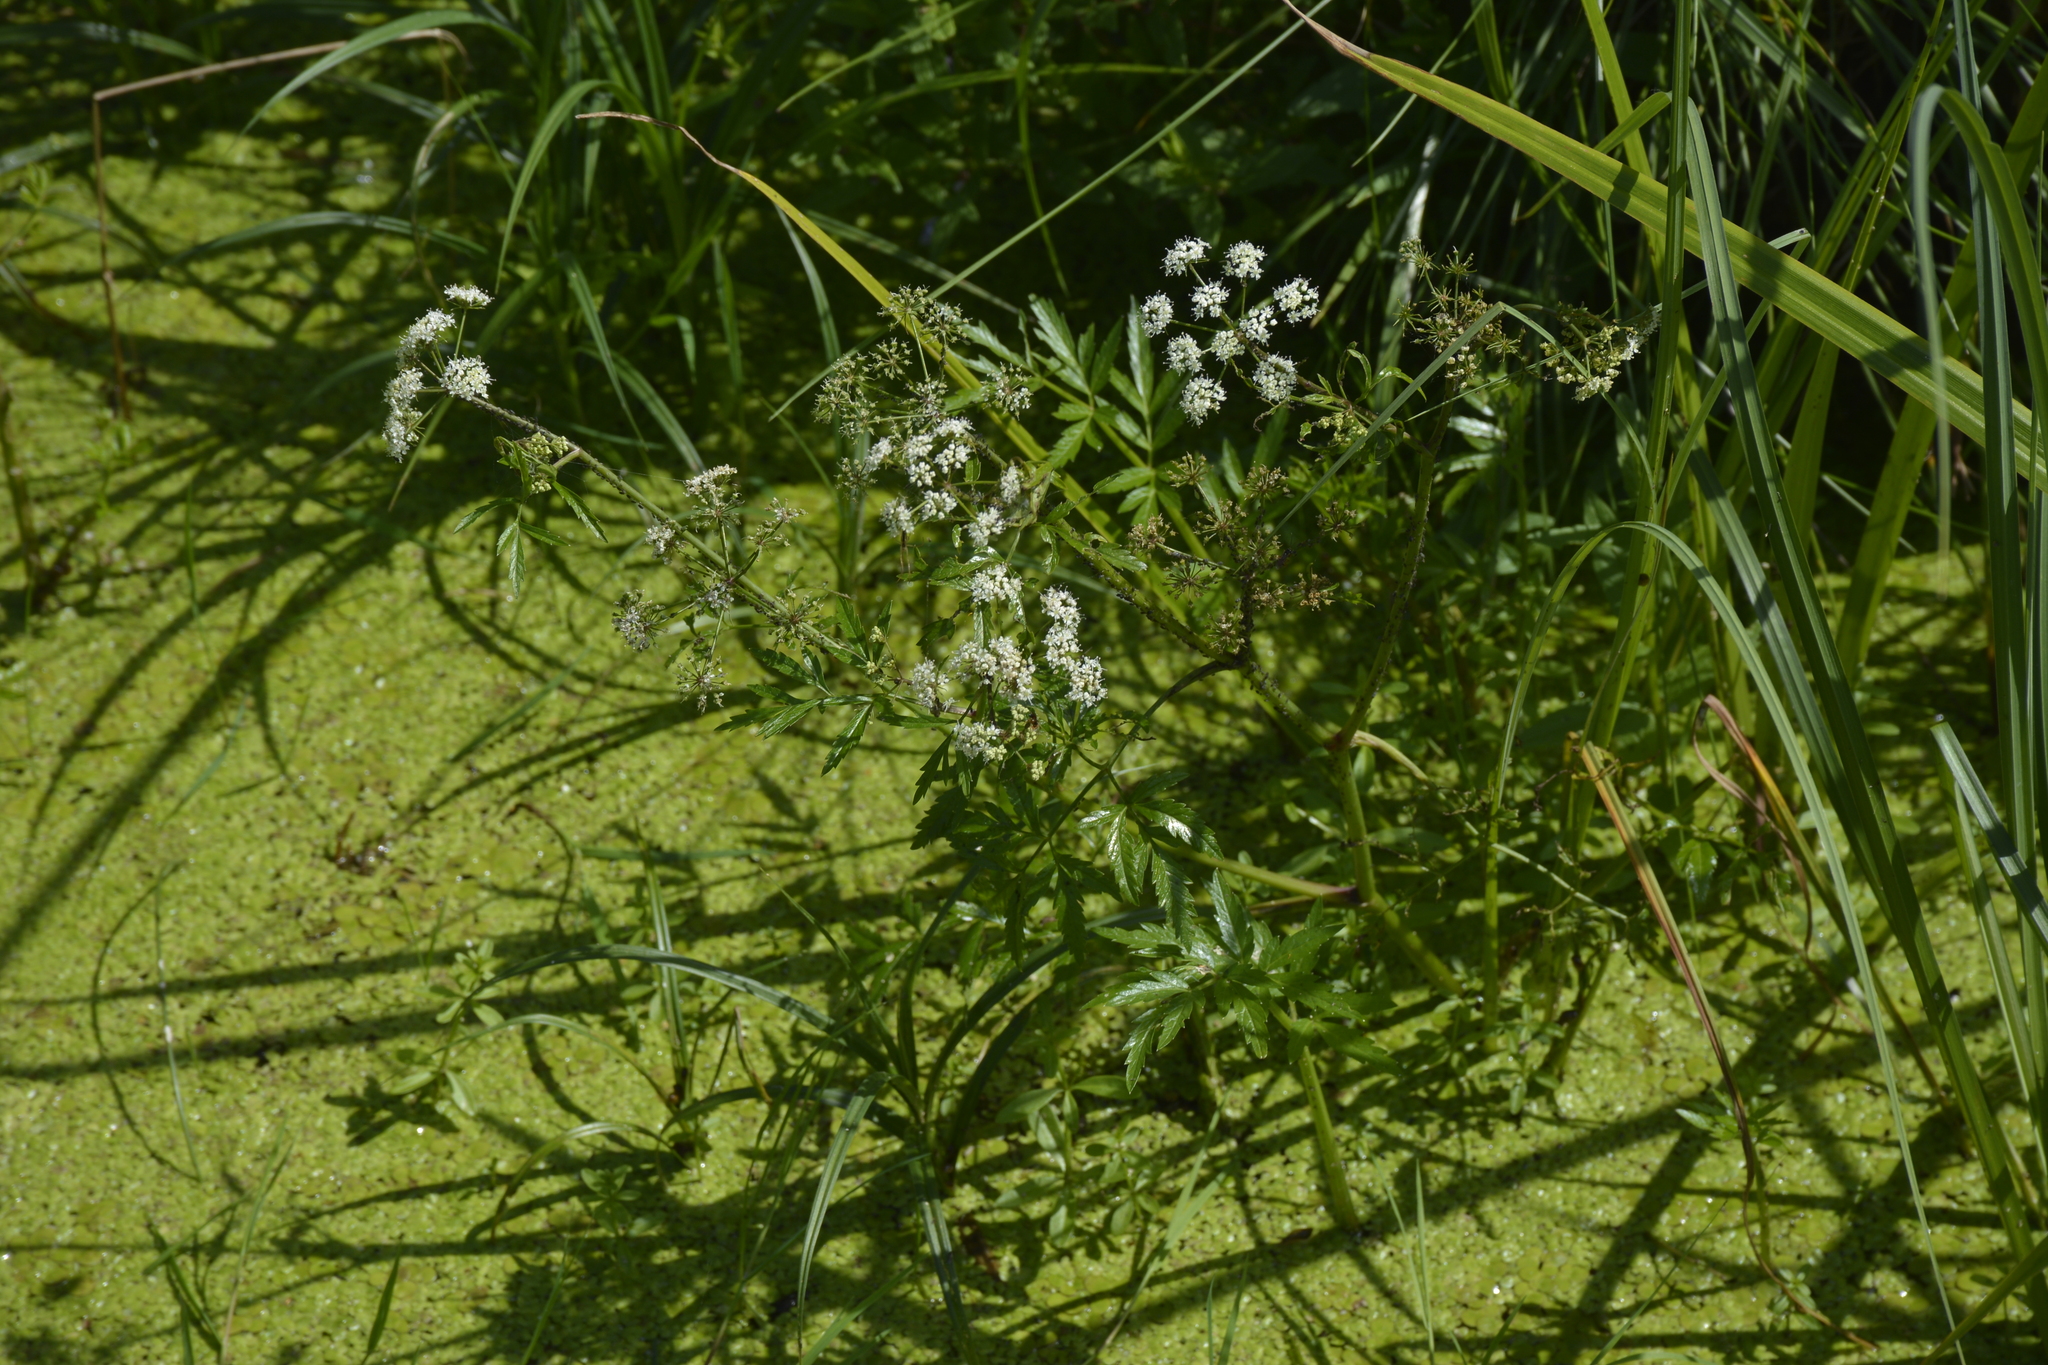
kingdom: Plantae
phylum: Tracheophyta
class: Magnoliopsida
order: Apiales
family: Apiaceae
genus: Cicuta
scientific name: Cicuta virosa
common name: Cowbane
